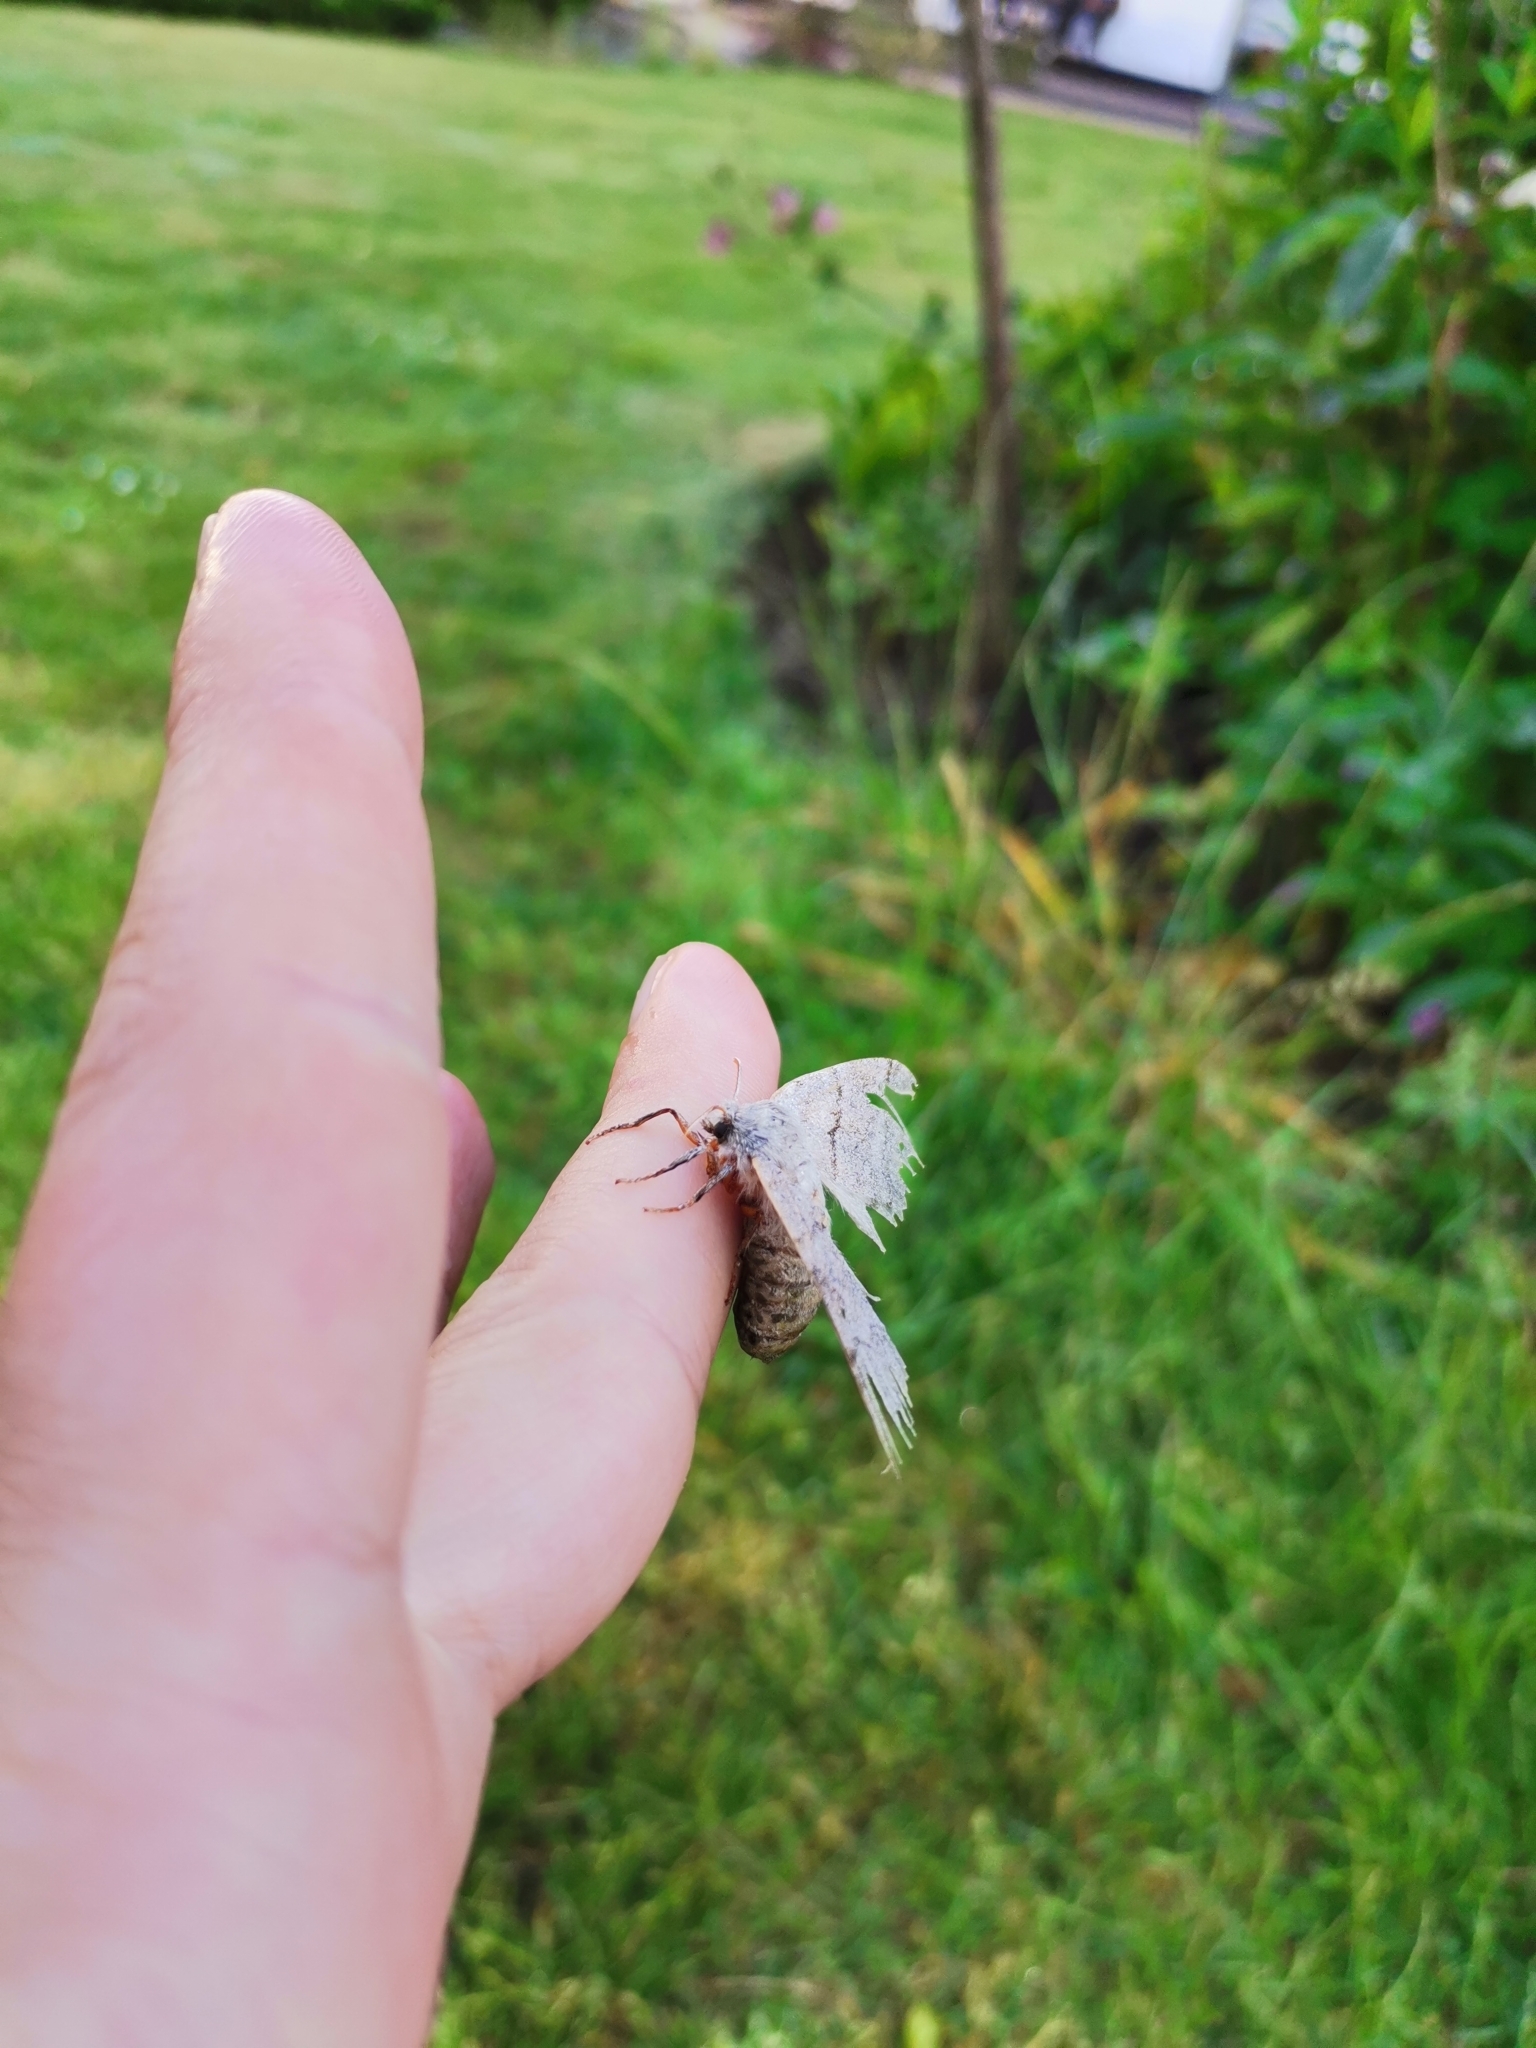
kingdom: Animalia
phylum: Arthropoda
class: Insecta
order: Lepidoptera
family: Erebidae
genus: Calliteara
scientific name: Calliteara pudibunda
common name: Pale tussock
